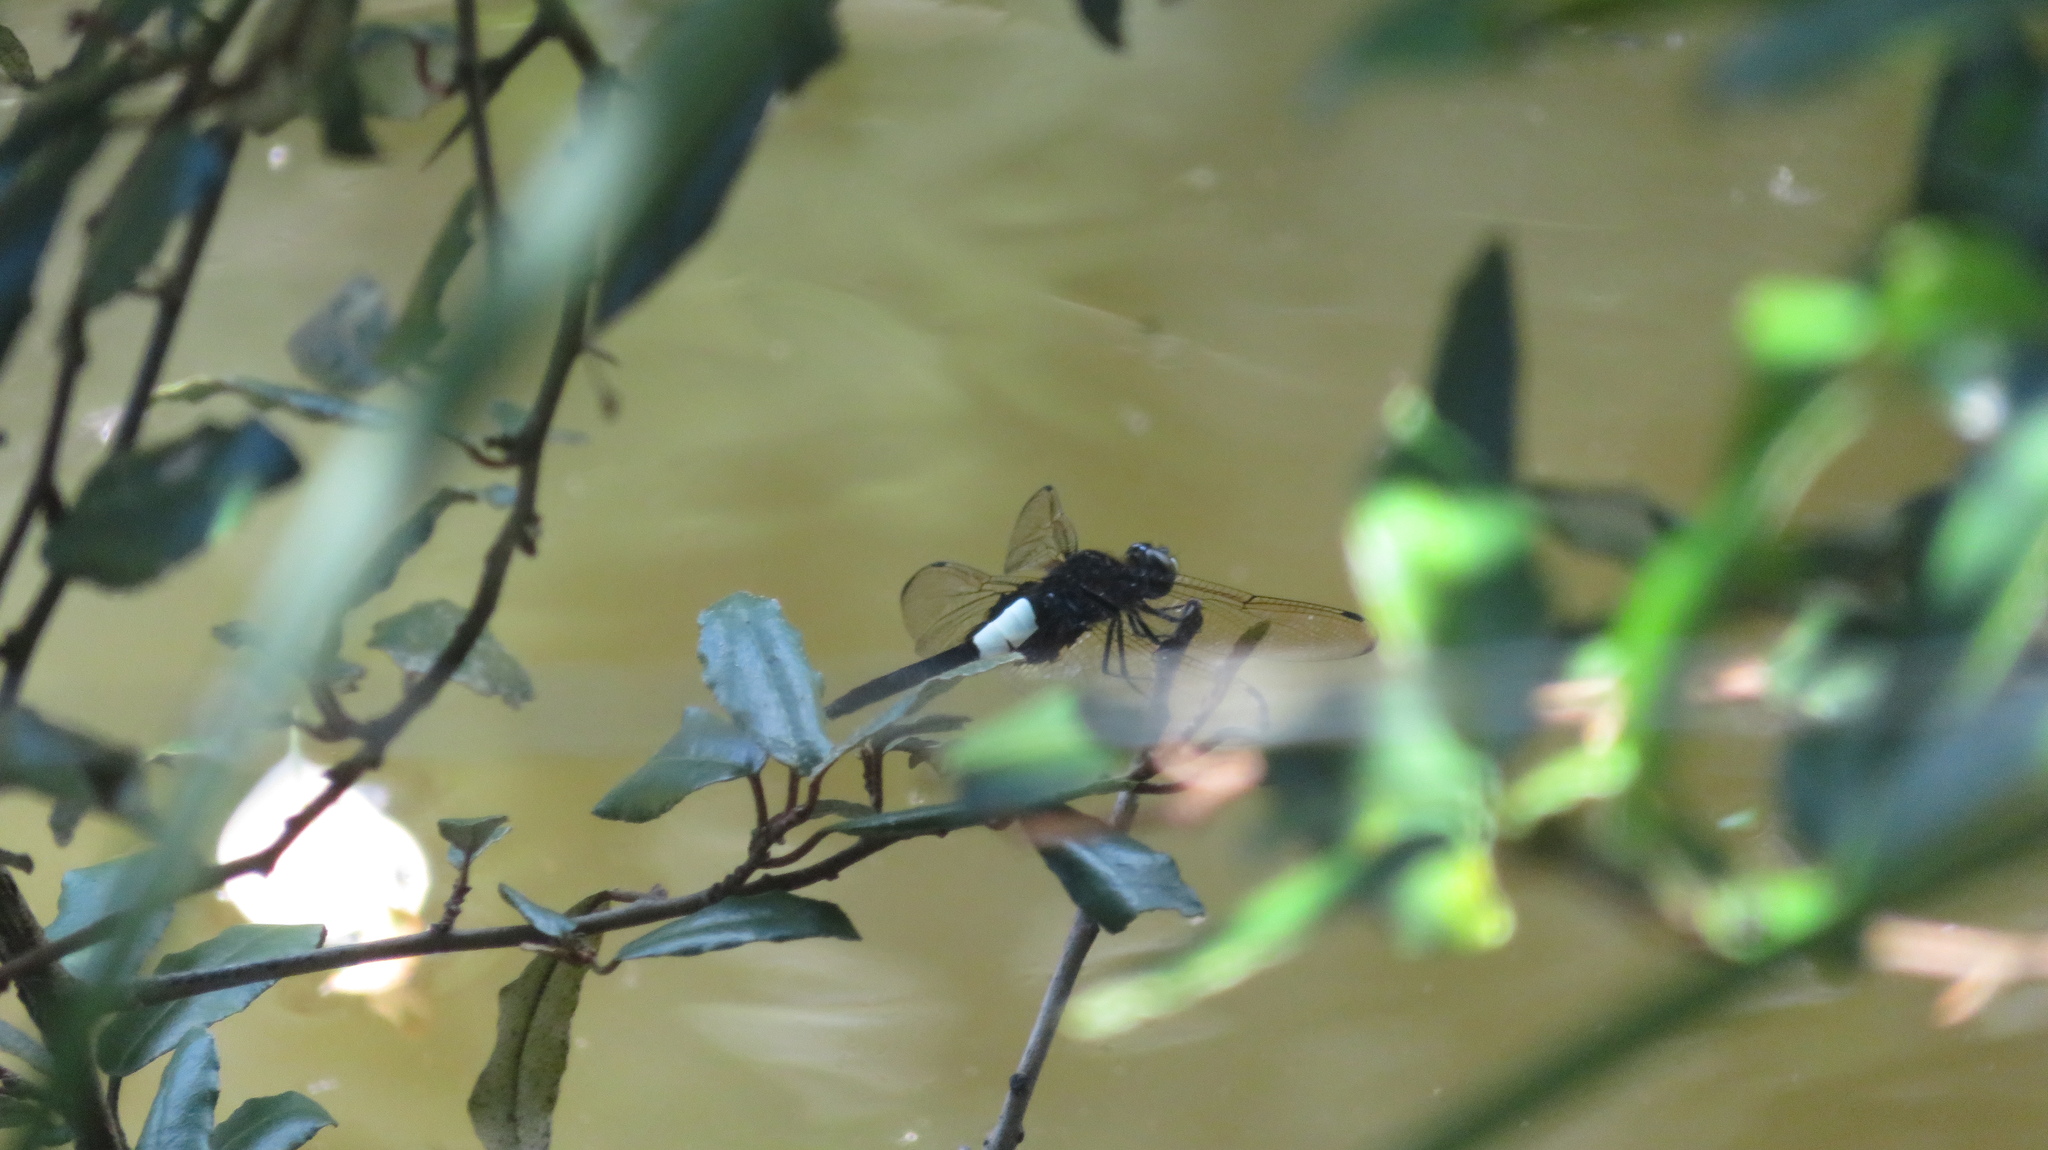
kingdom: Animalia
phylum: Arthropoda
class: Insecta
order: Odonata
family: Libellulidae
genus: Pseudothemis
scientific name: Pseudothemis zonata
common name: Pied skimmer
